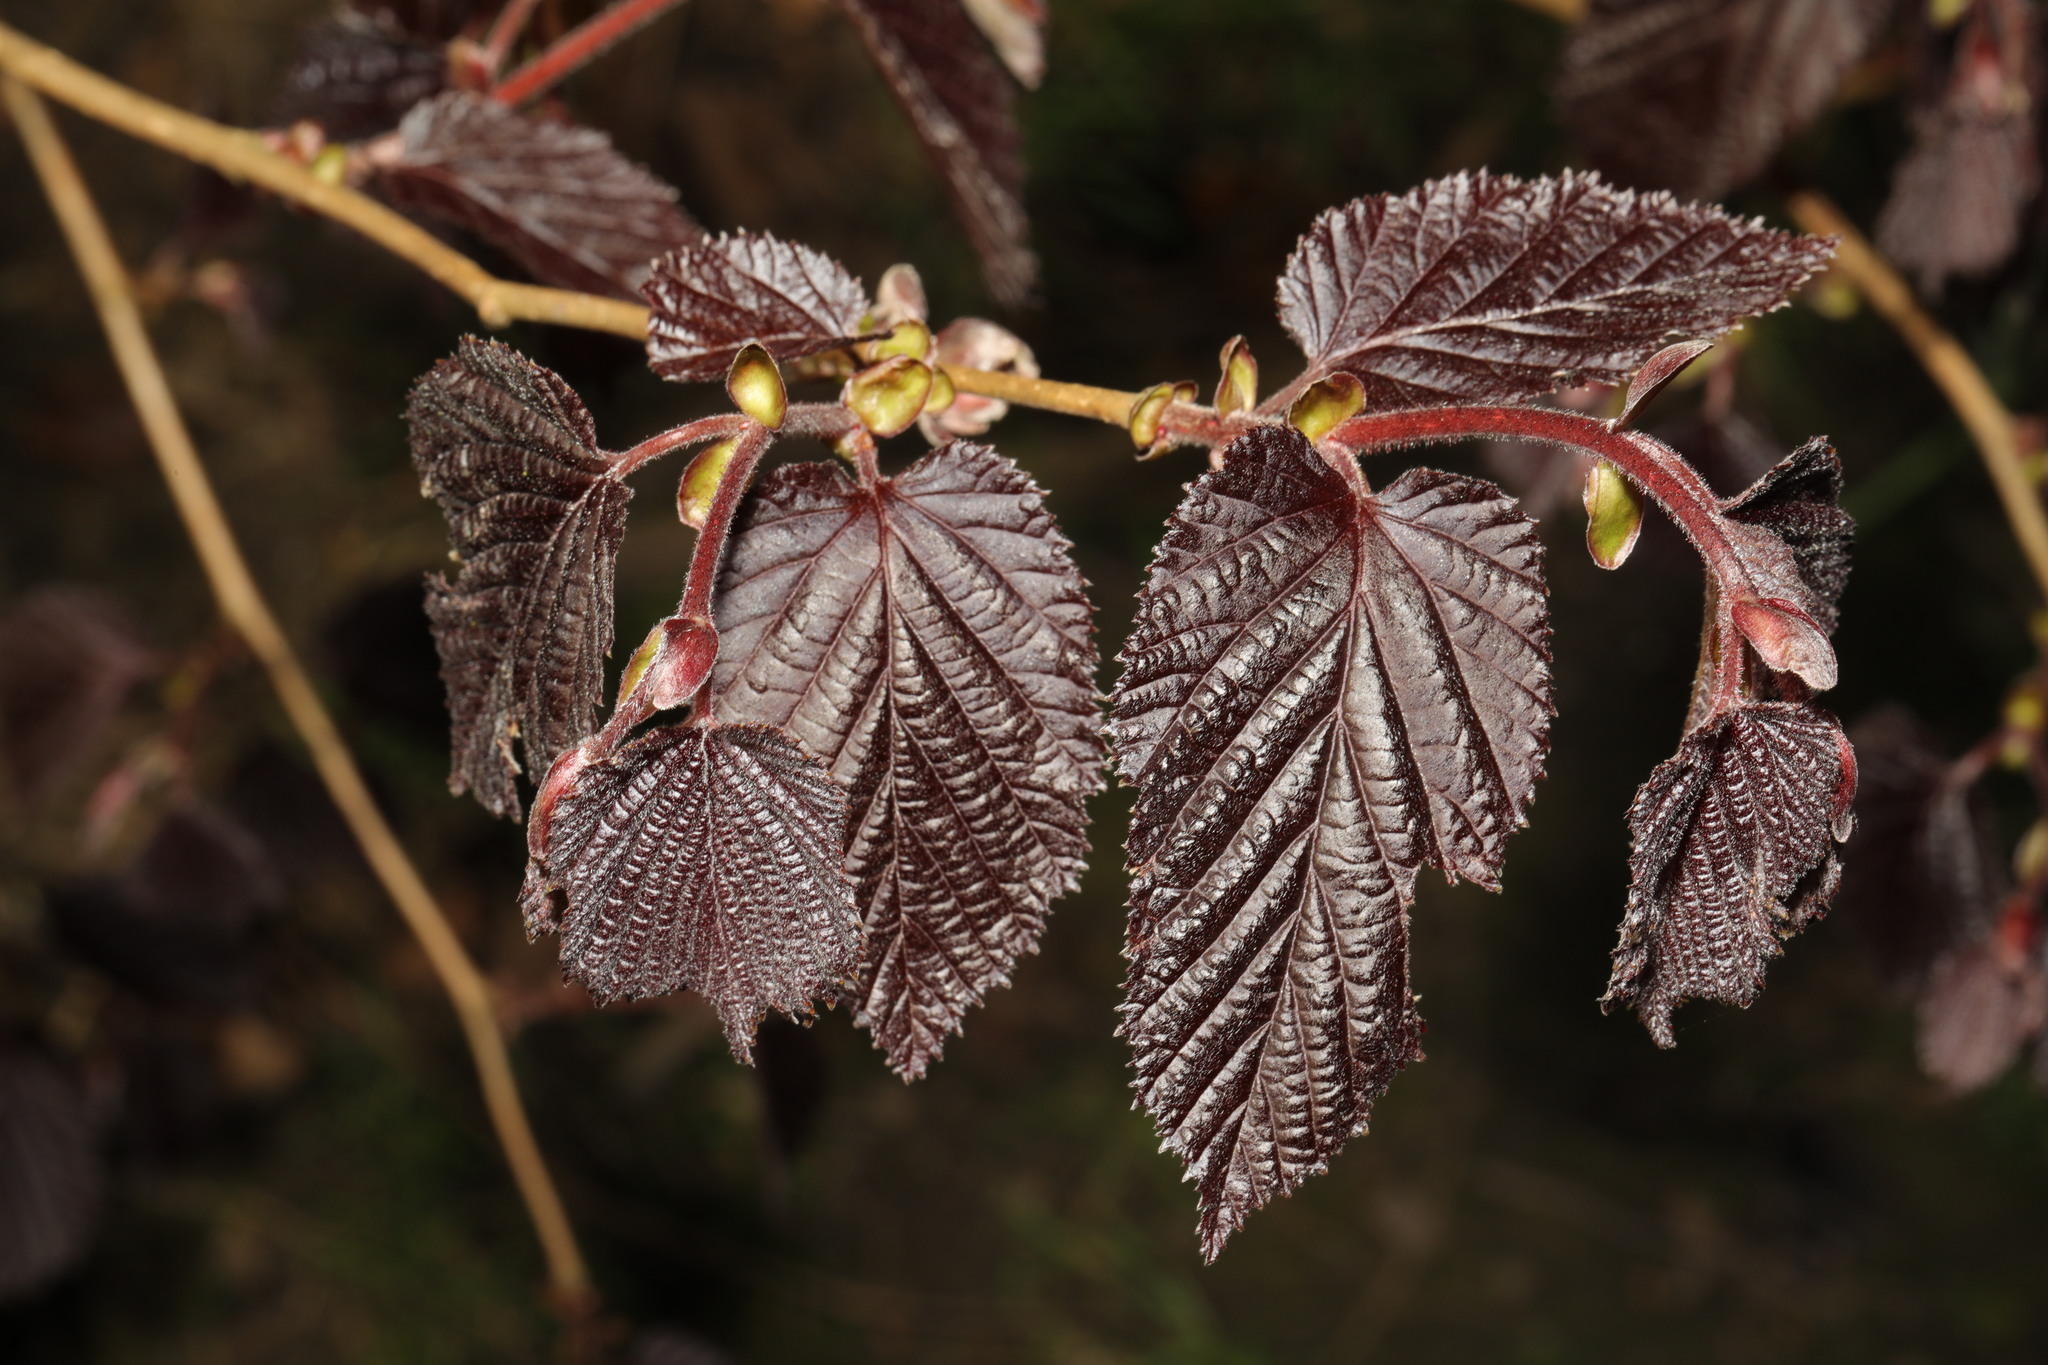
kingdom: Plantae
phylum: Tracheophyta
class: Magnoliopsida
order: Fagales
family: Betulaceae
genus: Corylus
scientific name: Corylus avellana
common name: European hazel
